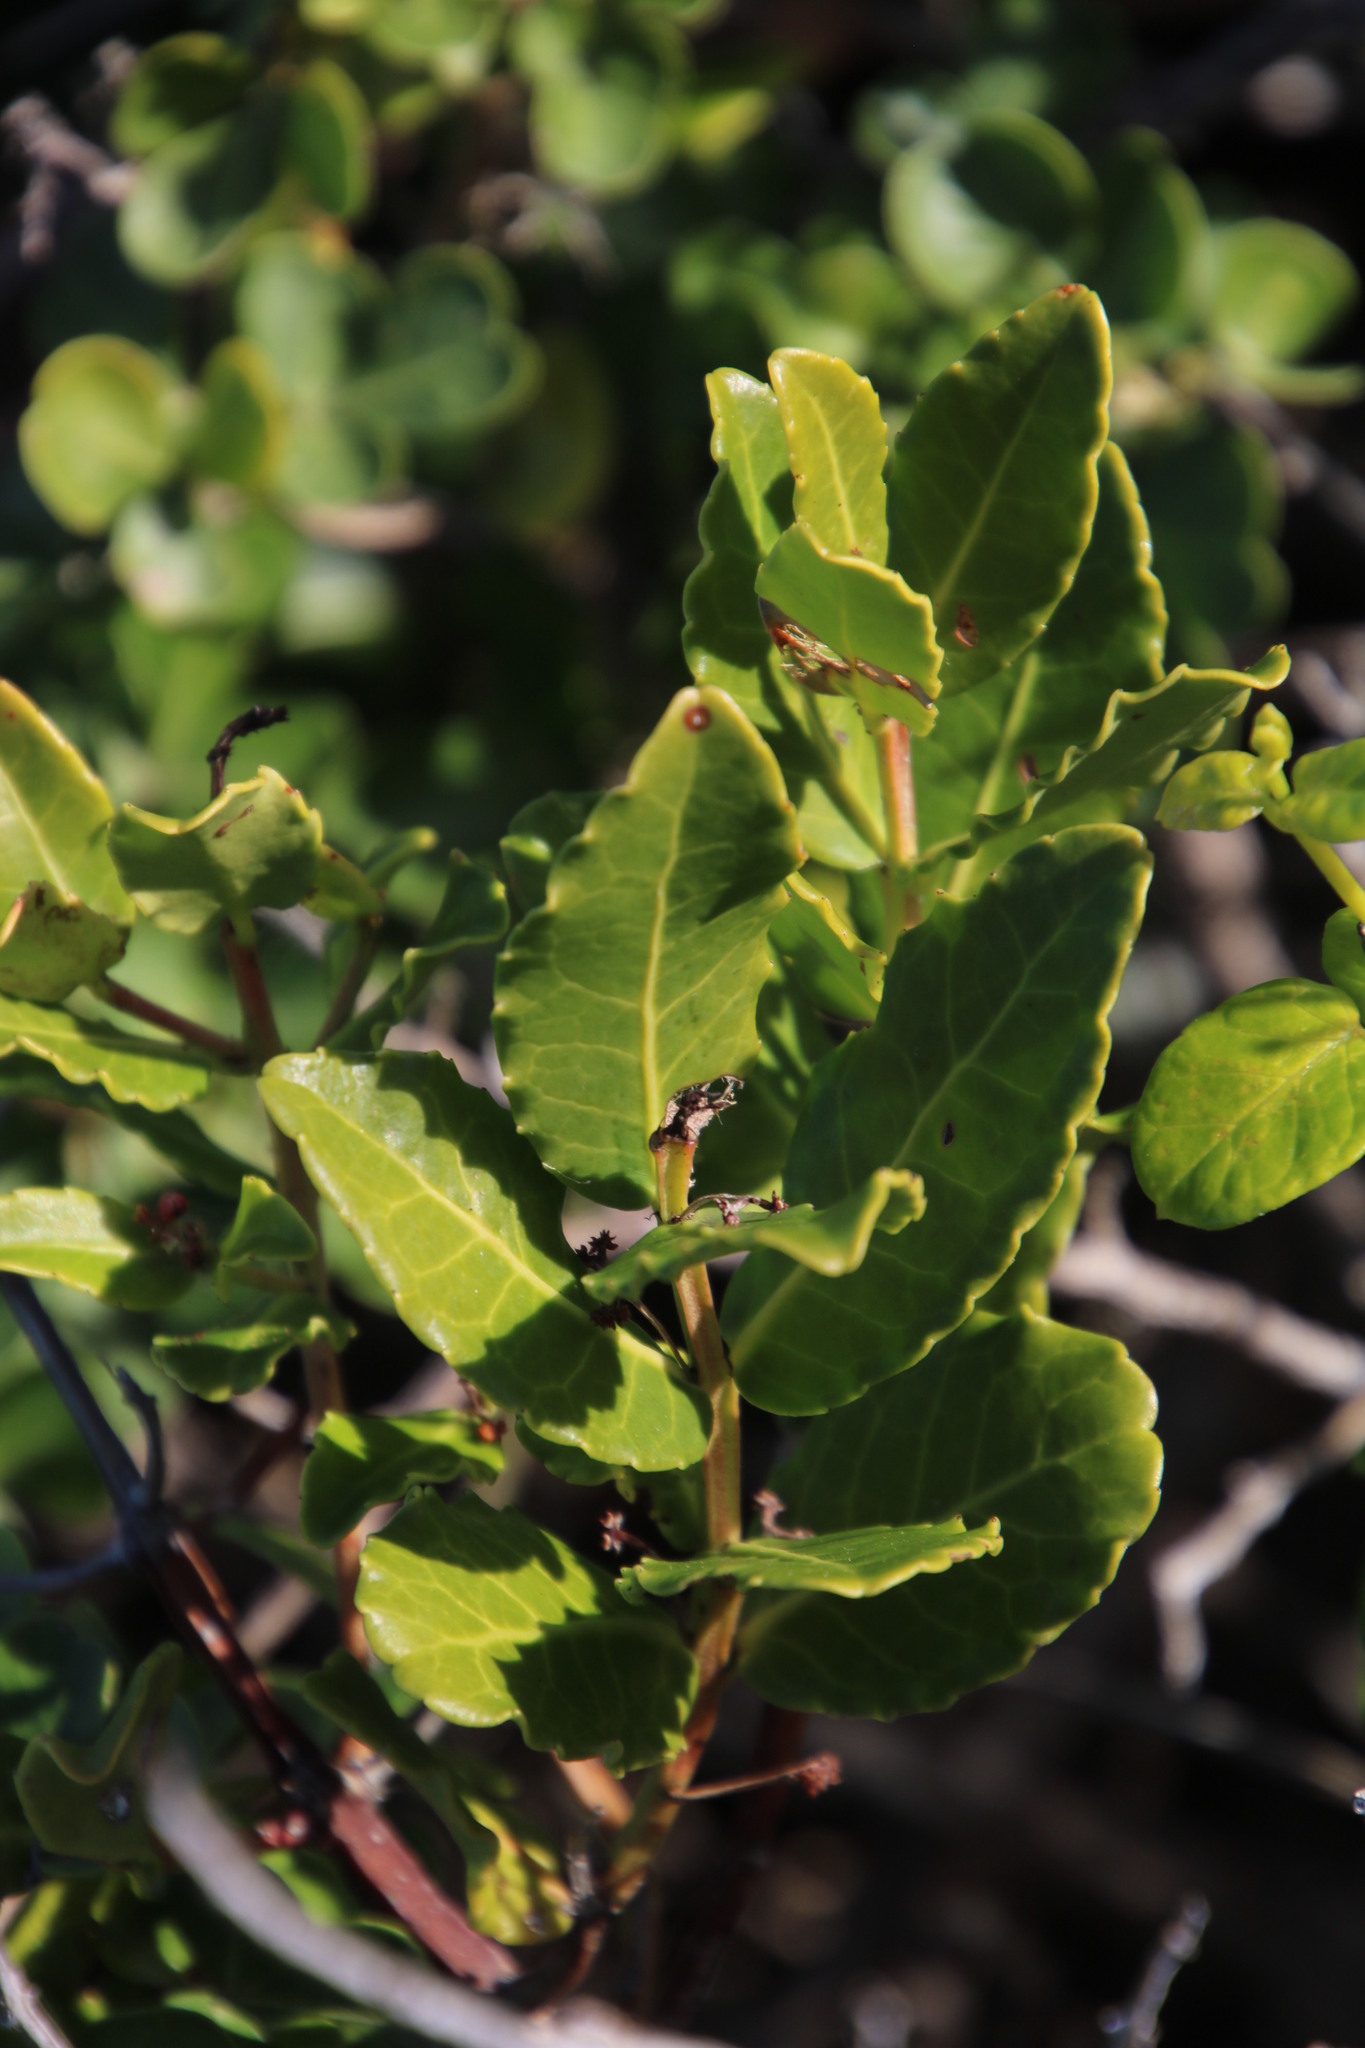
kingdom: Plantae
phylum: Tracheophyta
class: Magnoliopsida
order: Celastrales
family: Celastraceae
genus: Lauridia
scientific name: Lauridia tetragona
